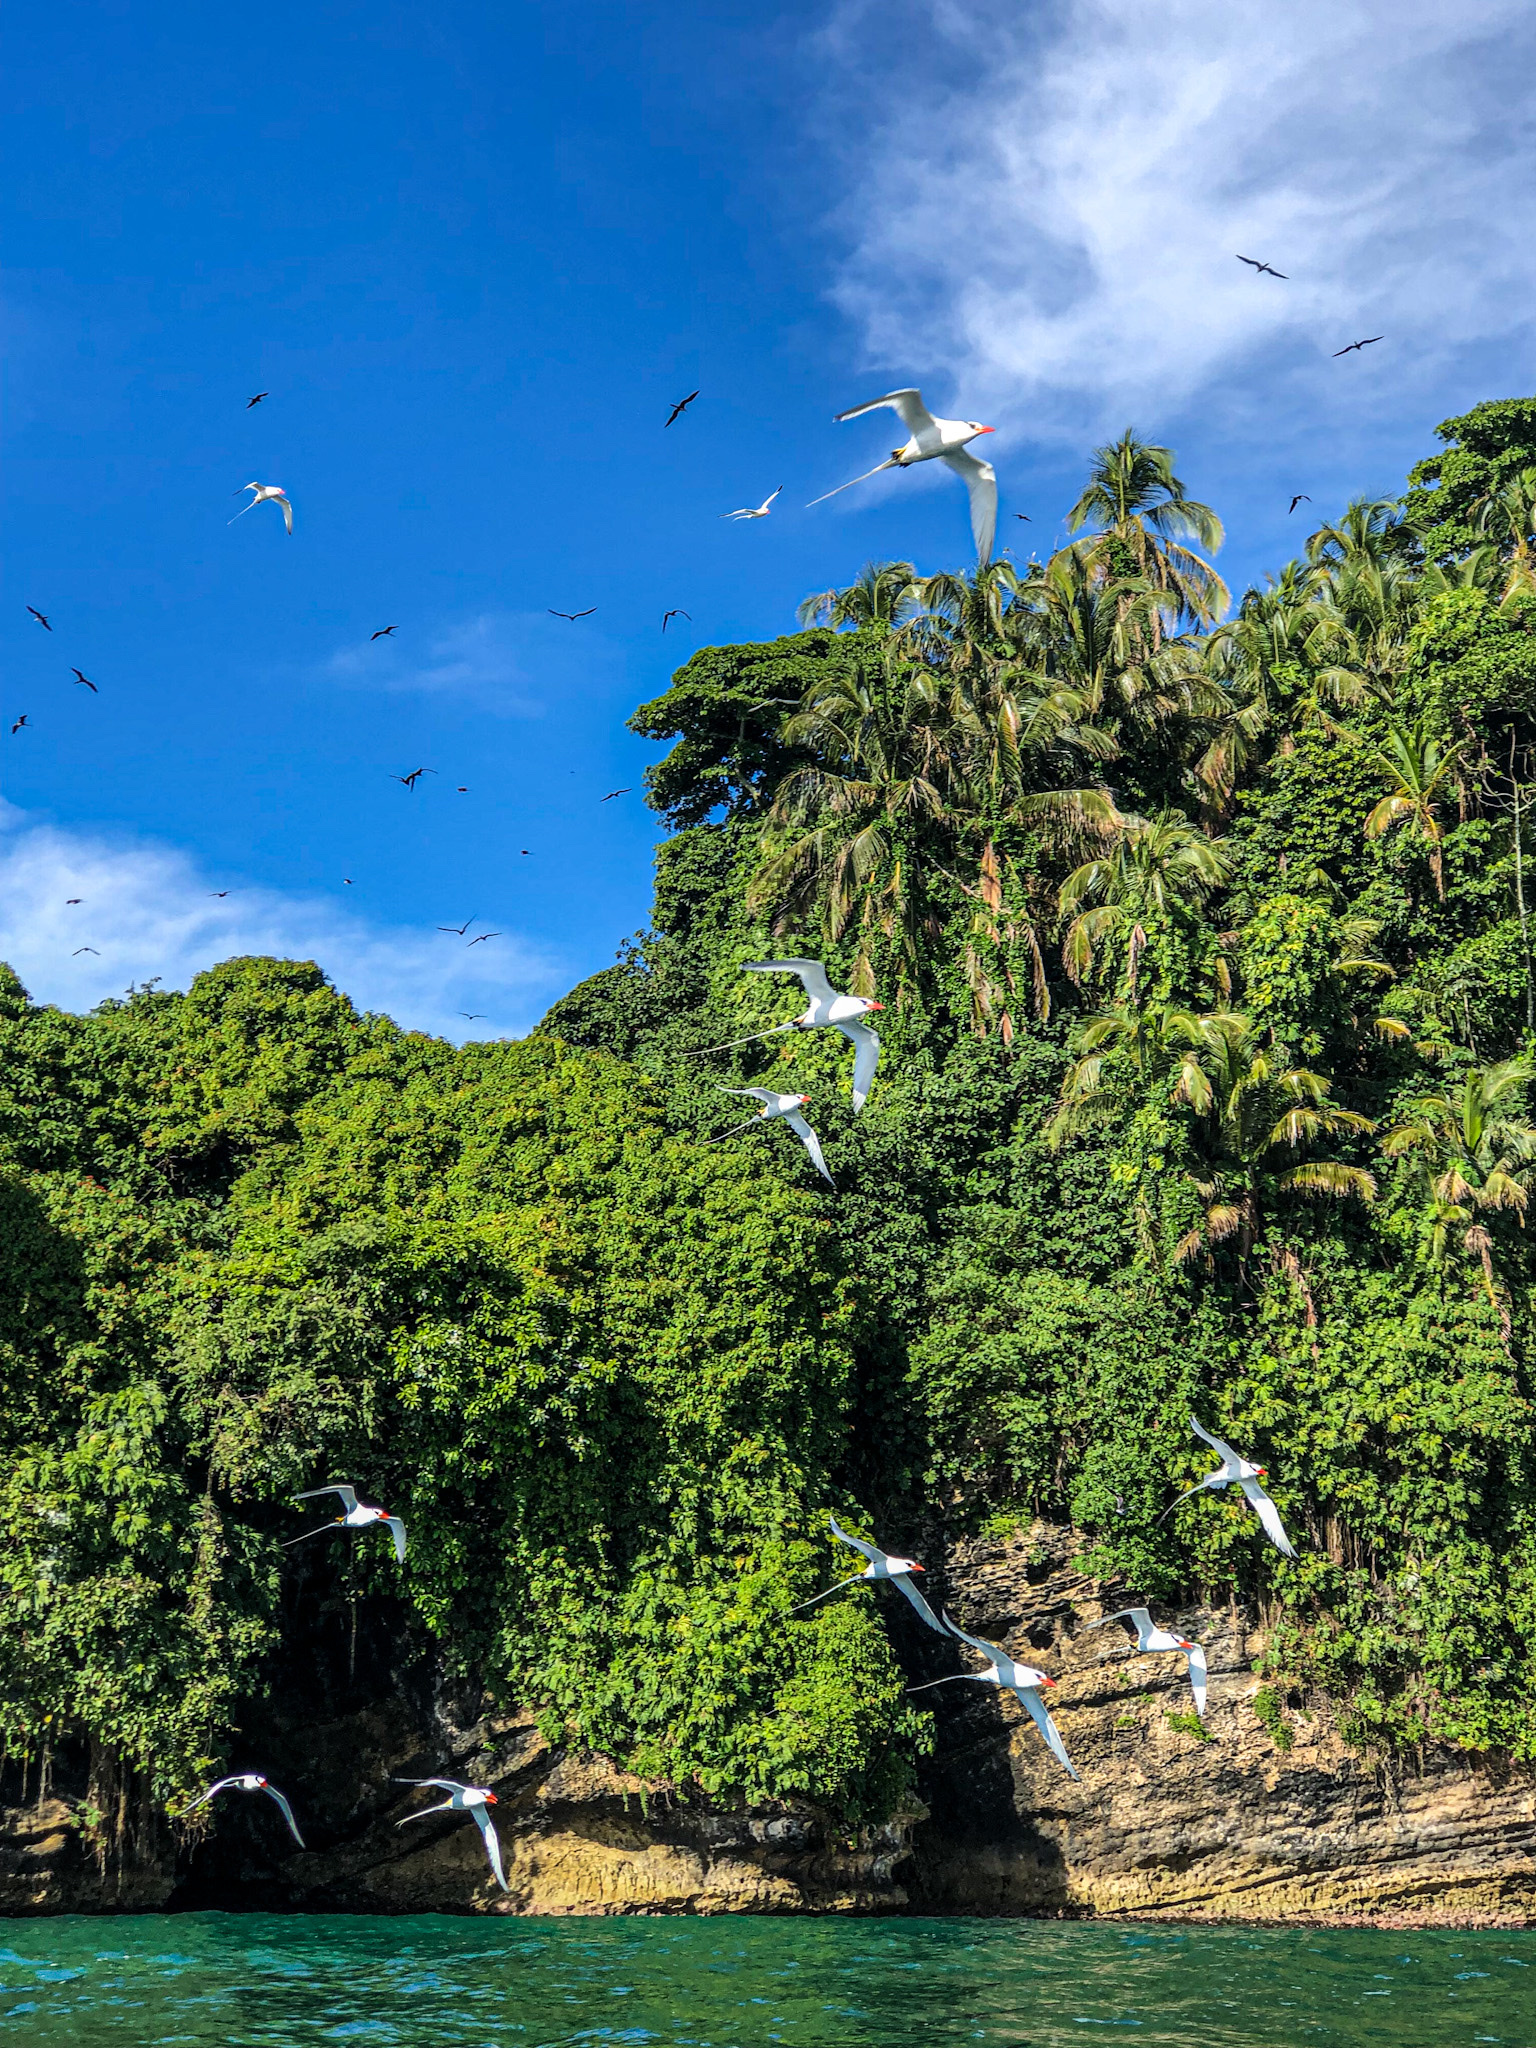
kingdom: Animalia
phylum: Chordata
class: Aves
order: Phaethontiformes
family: Phaethontidae
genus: Phaethon
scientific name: Phaethon aethereus
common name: Red-billed tropicbird
